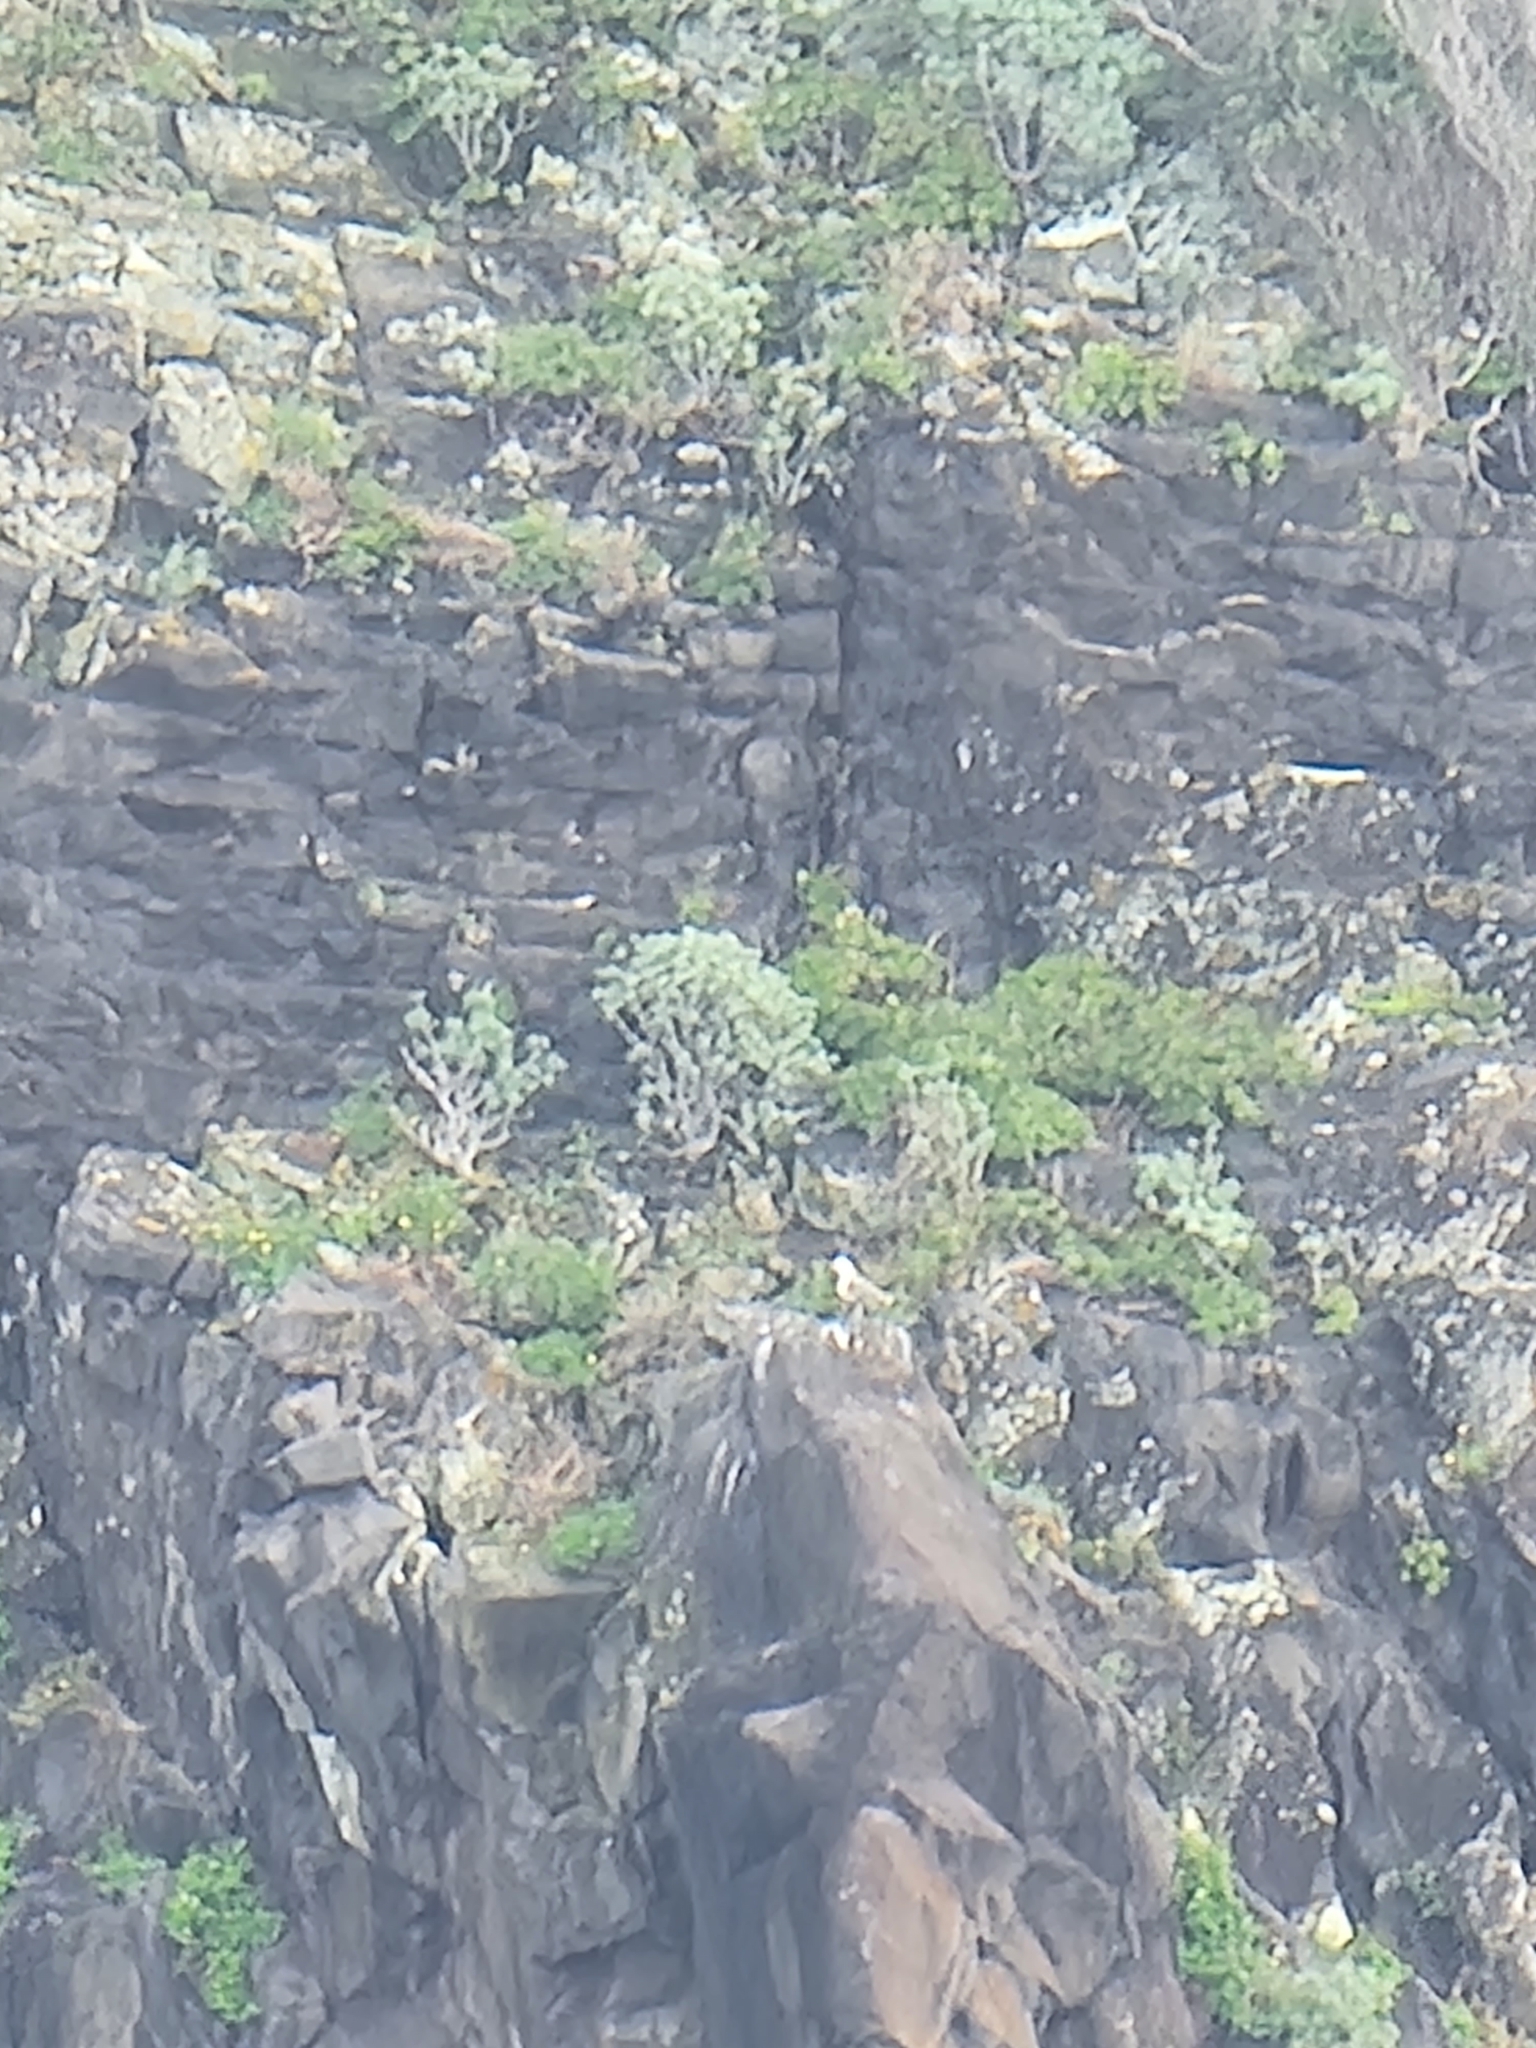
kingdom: Plantae
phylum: Tracheophyta
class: Magnoliopsida
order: Malpighiales
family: Euphorbiaceae
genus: Euphorbia
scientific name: Euphorbia piscatoria
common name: Fish-stunning spurge
